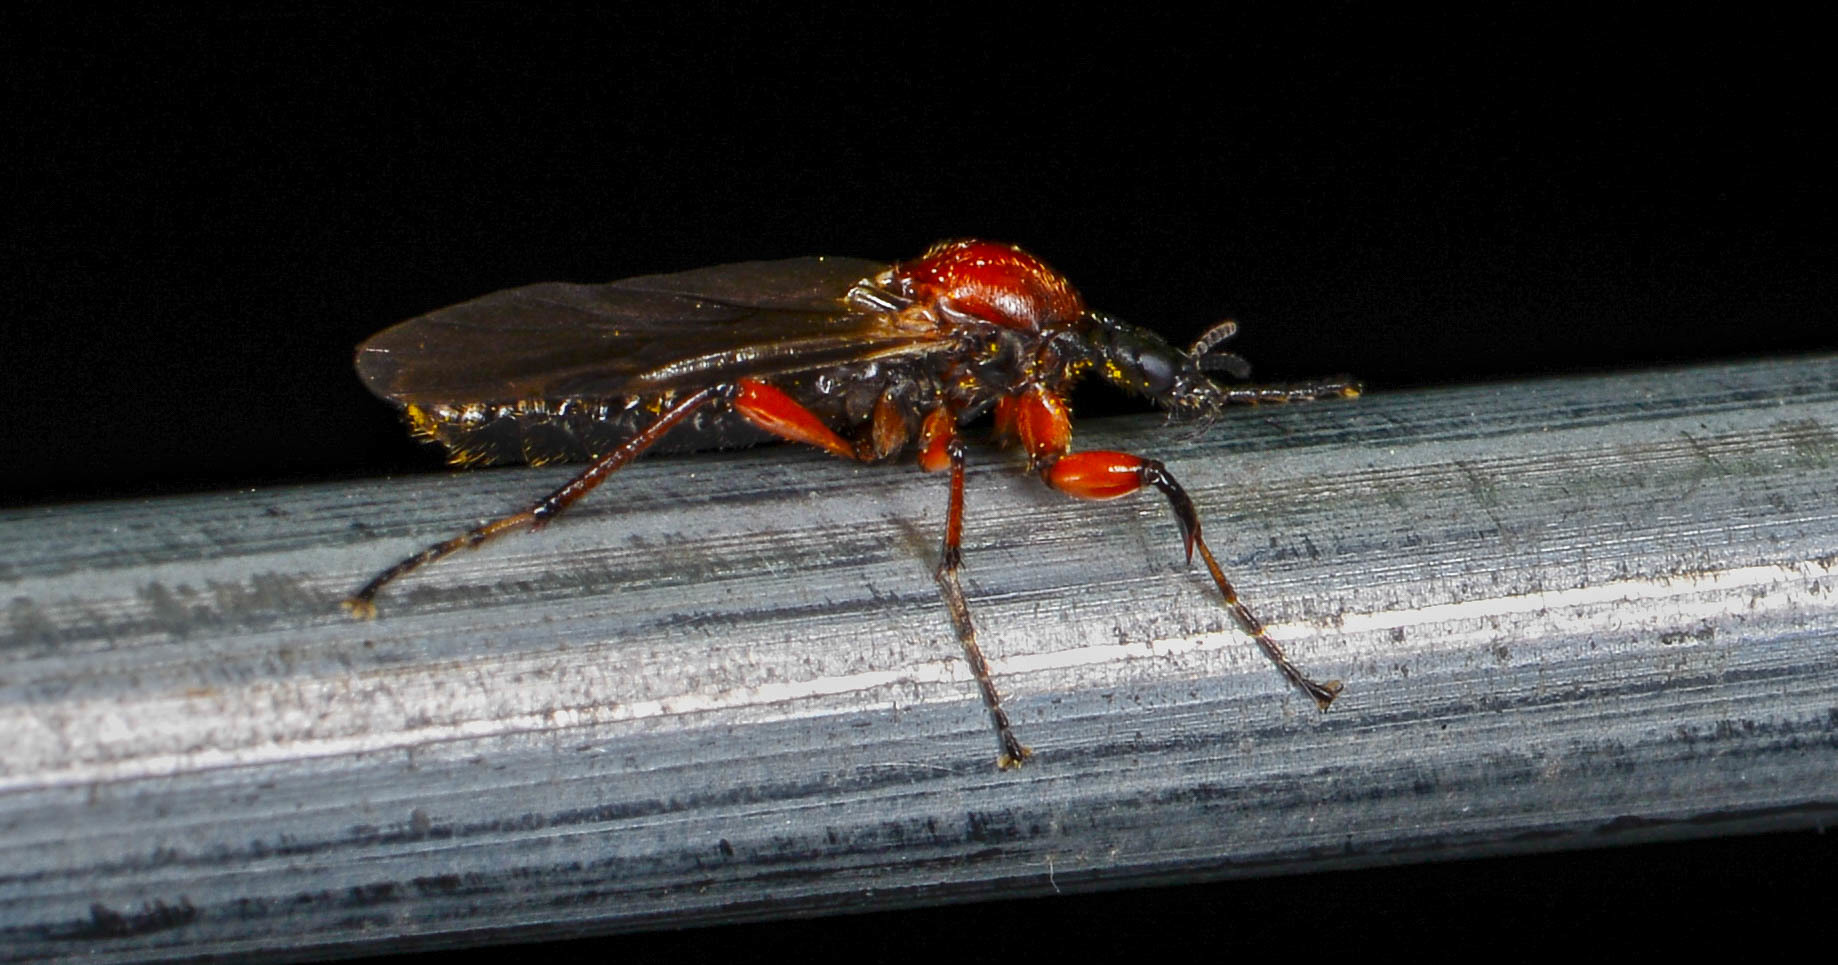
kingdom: Animalia
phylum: Arthropoda
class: Insecta
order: Diptera
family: Bibionidae
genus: Bibio
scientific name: Bibio articulatus
